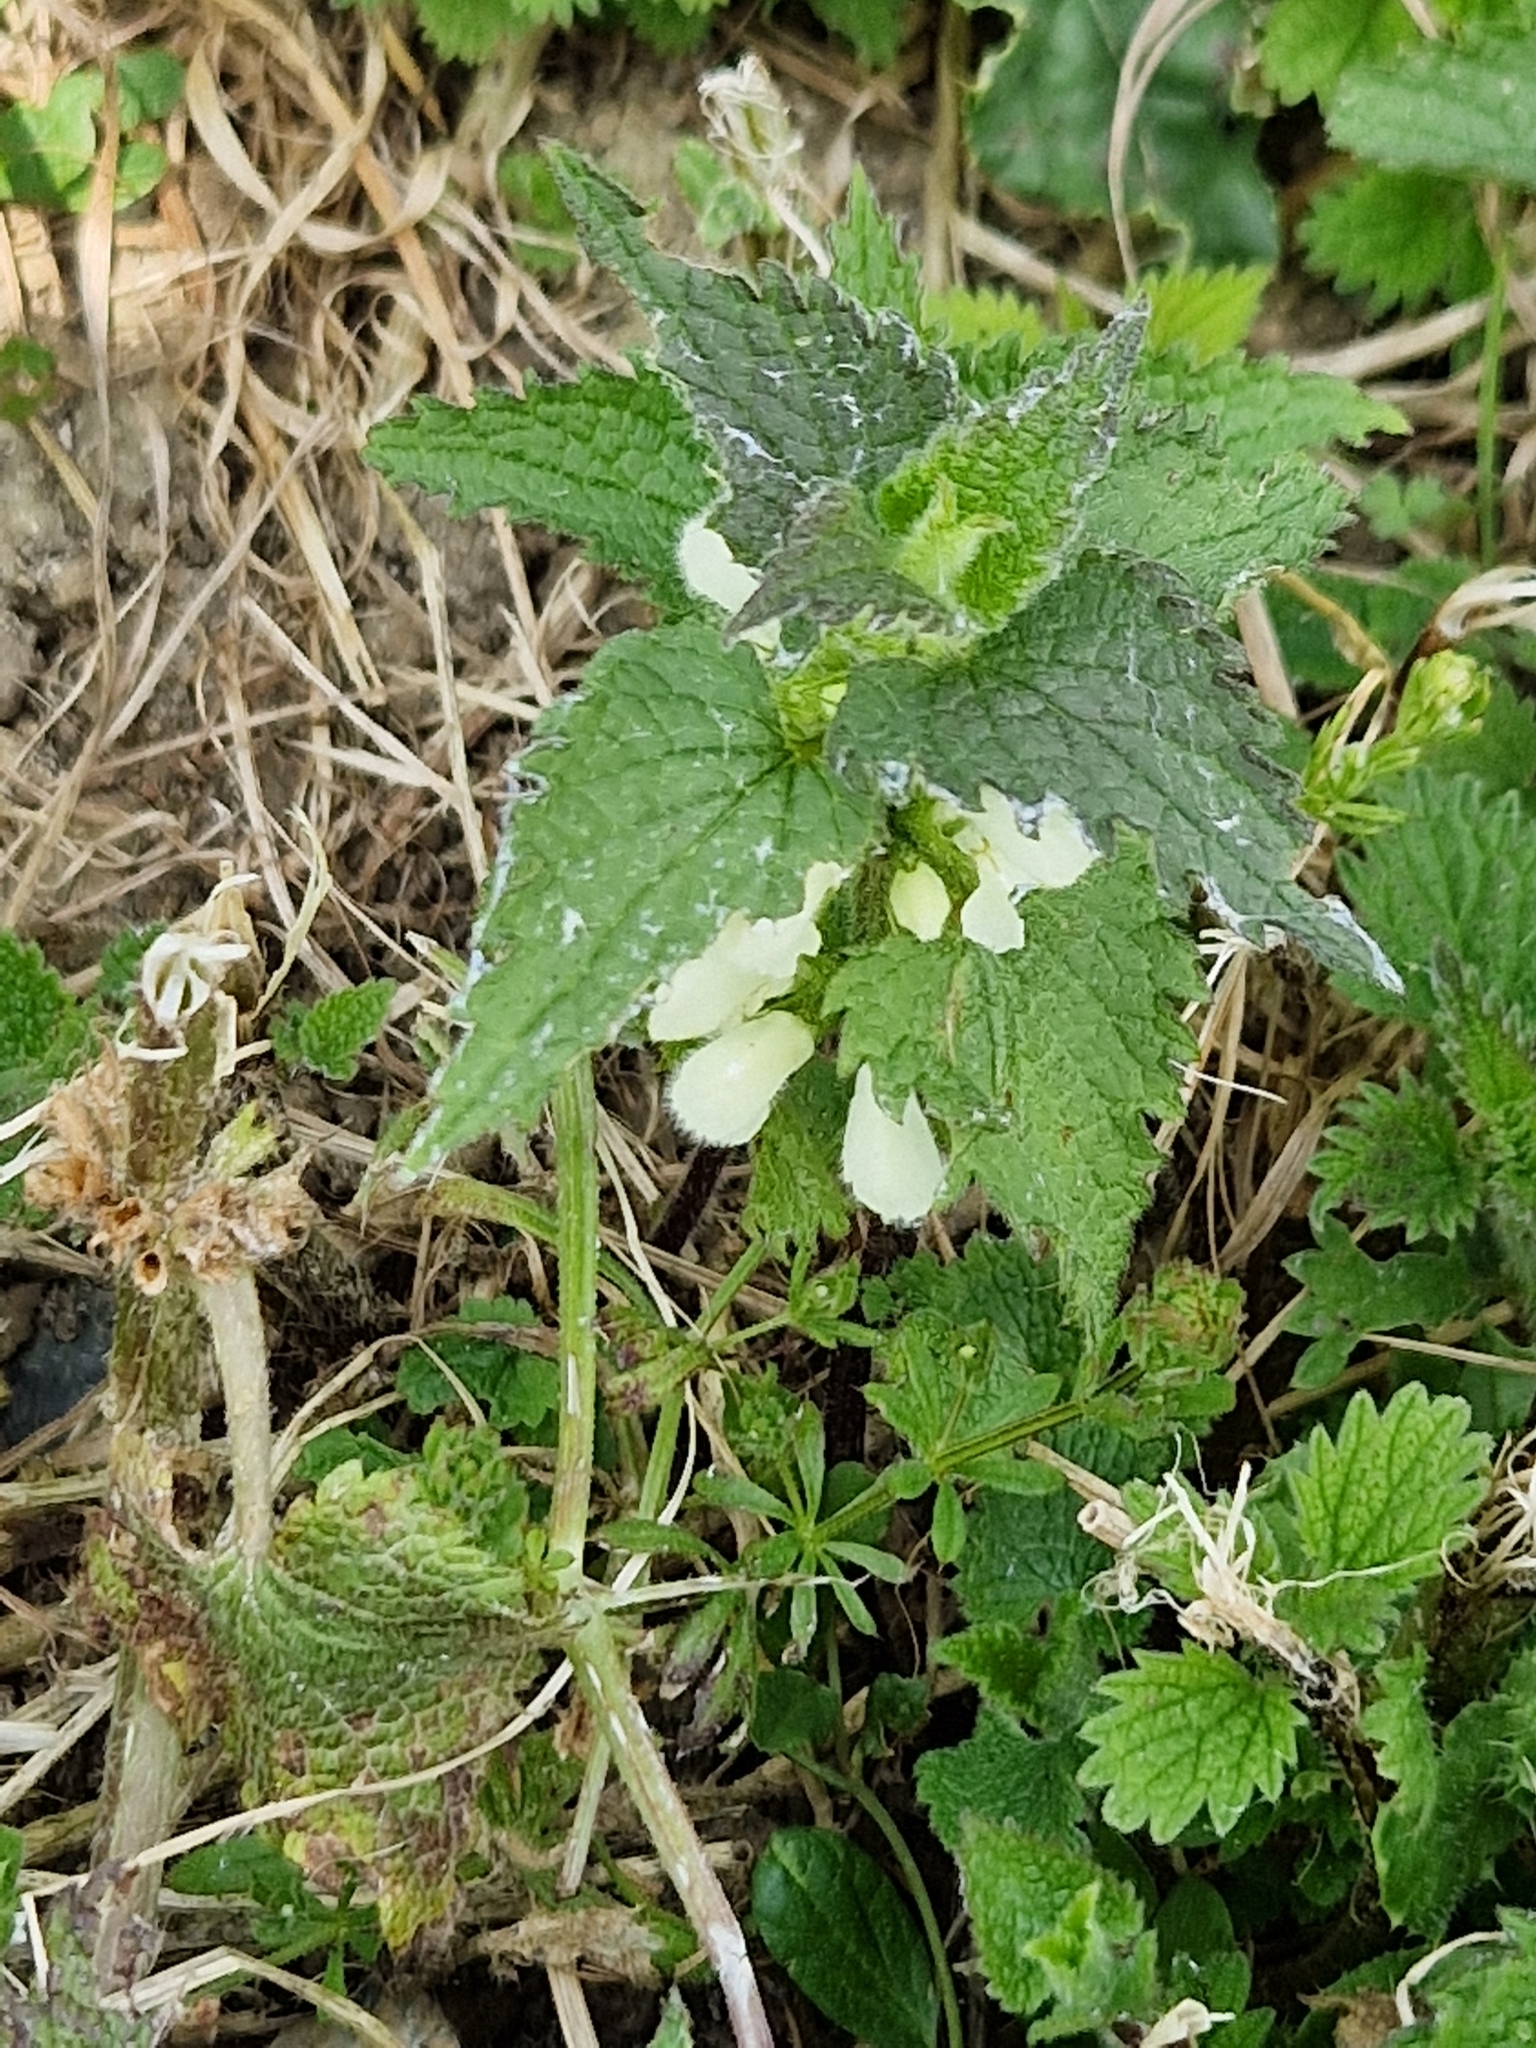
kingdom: Plantae
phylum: Tracheophyta
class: Magnoliopsida
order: Lamiales
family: Lamiaceae
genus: Lamium
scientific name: Lamium album
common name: White dead-nettle
